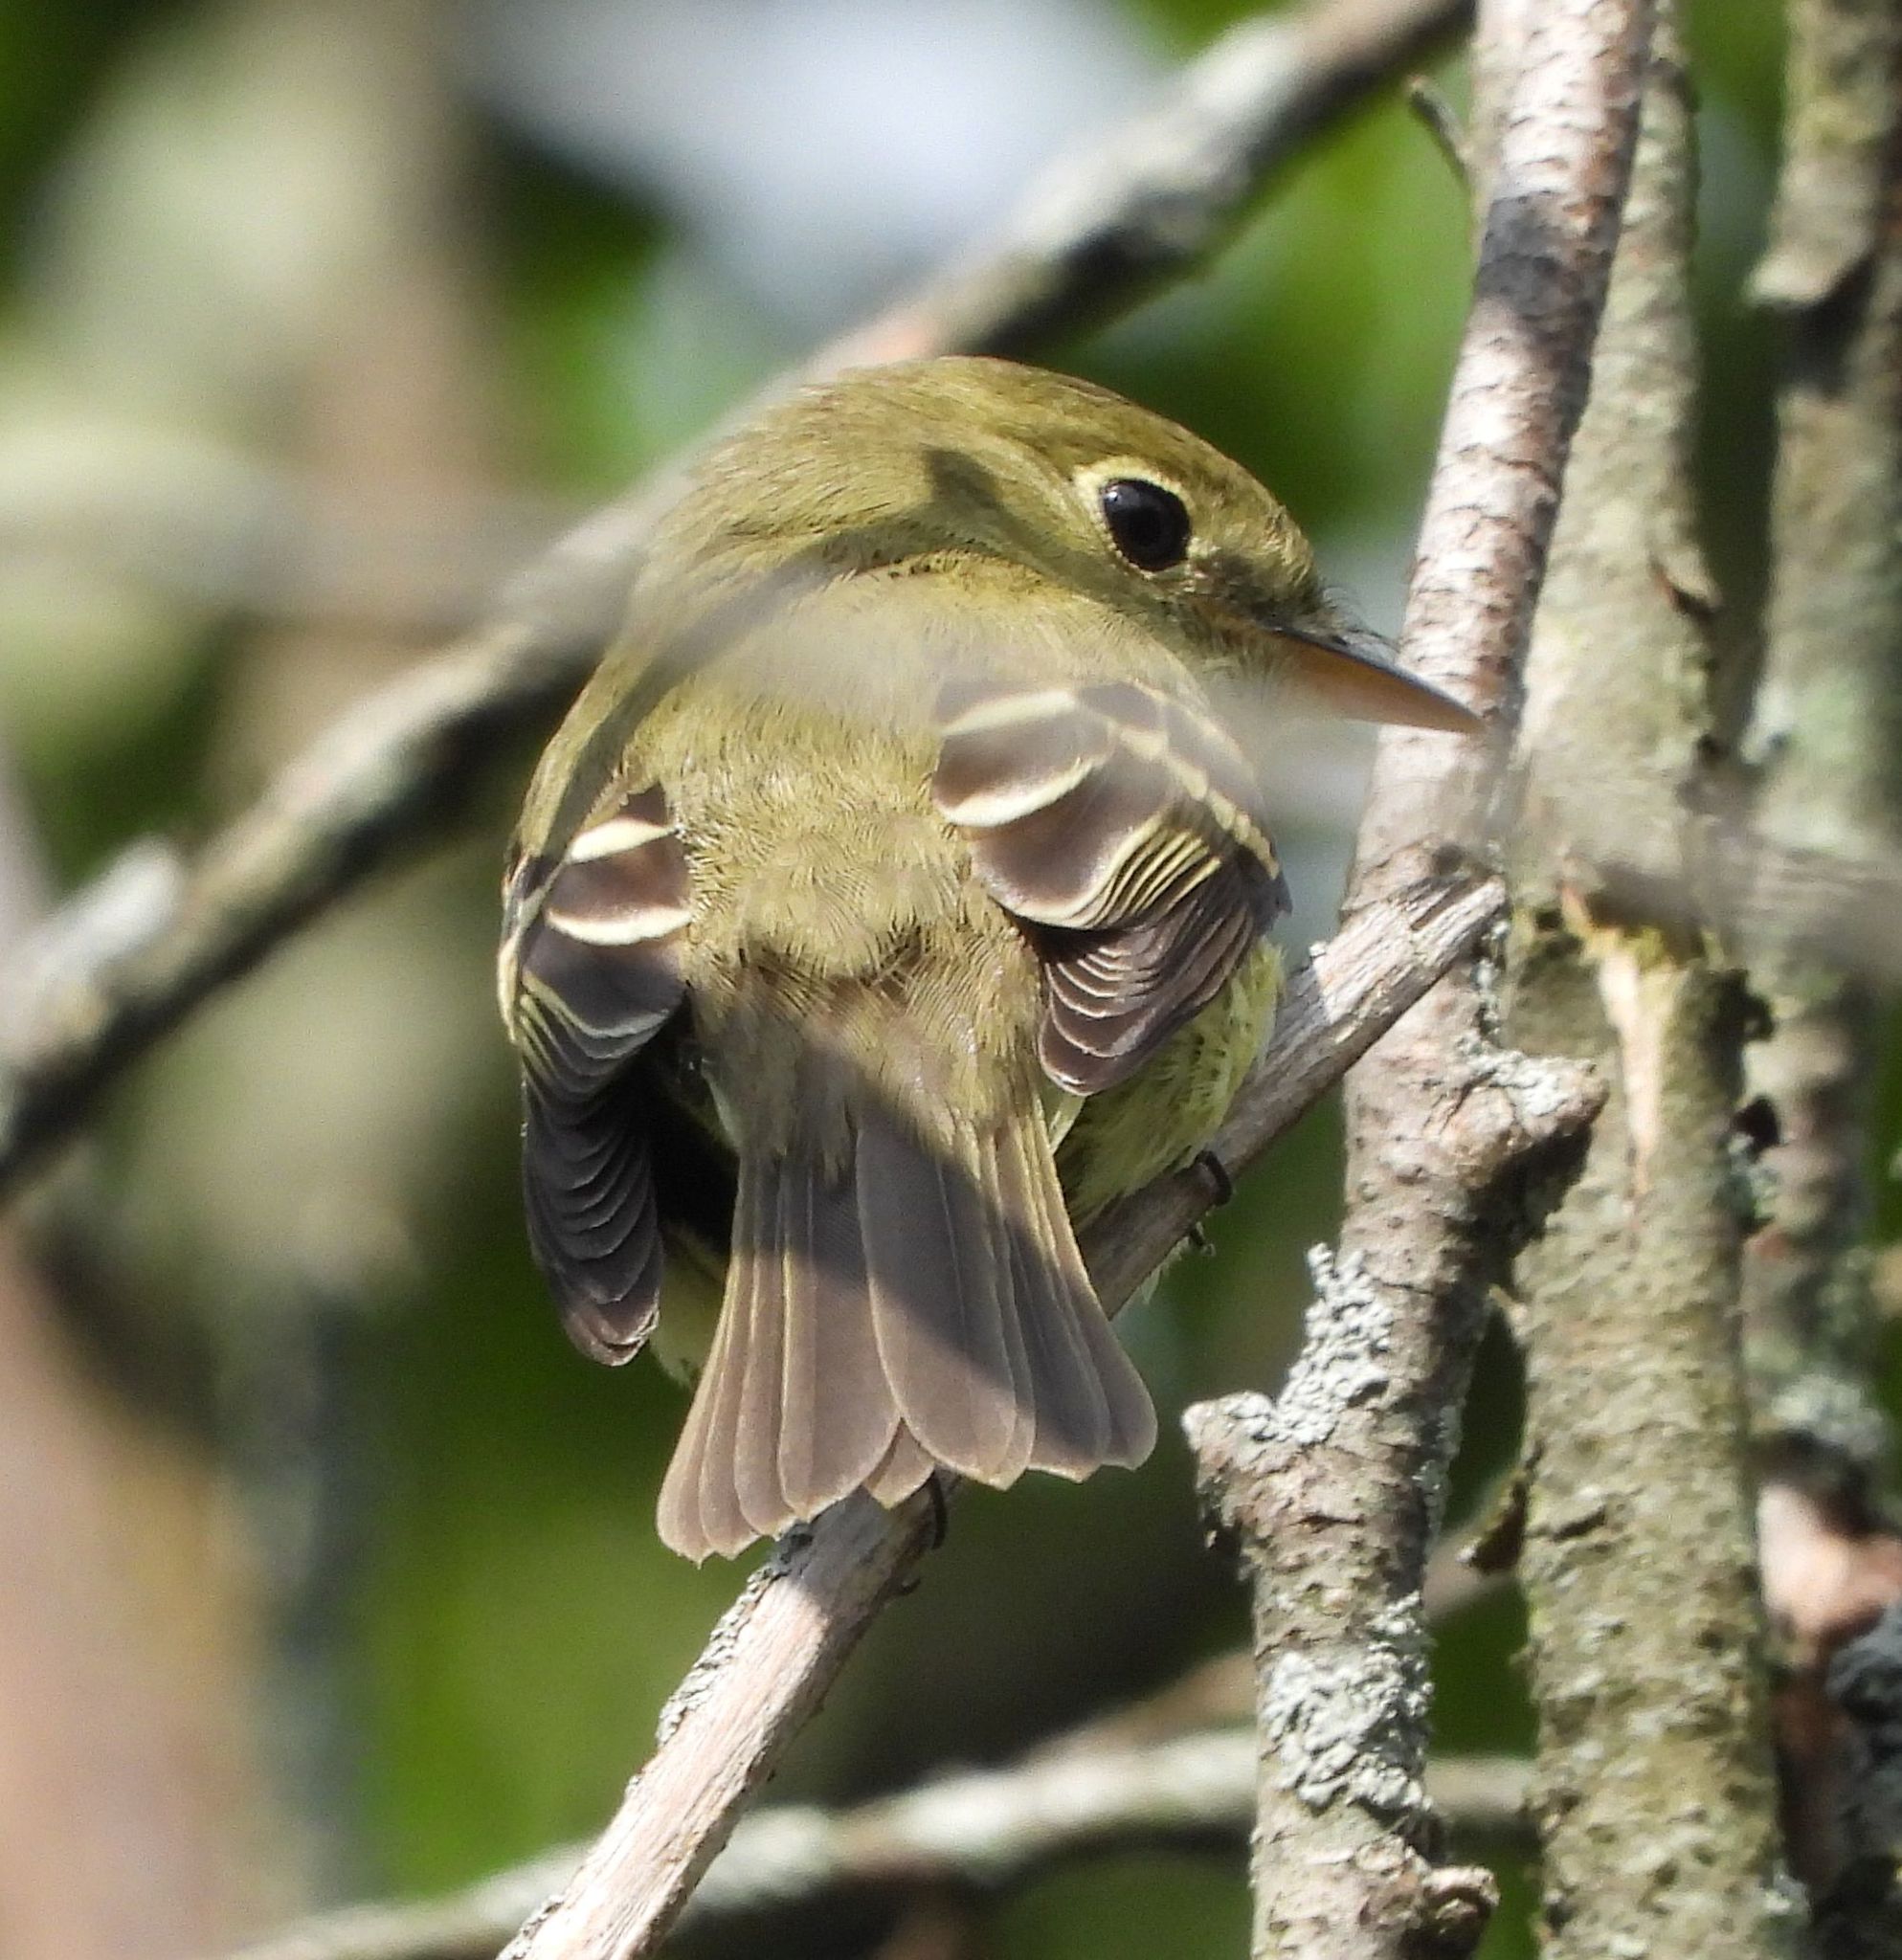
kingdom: Animalia
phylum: Chordata
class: Aves
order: Passeriformes
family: Tyrannidae
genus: Empidonax
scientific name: Empidonax flaviventris
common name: Yellow-bellied flycatcher
